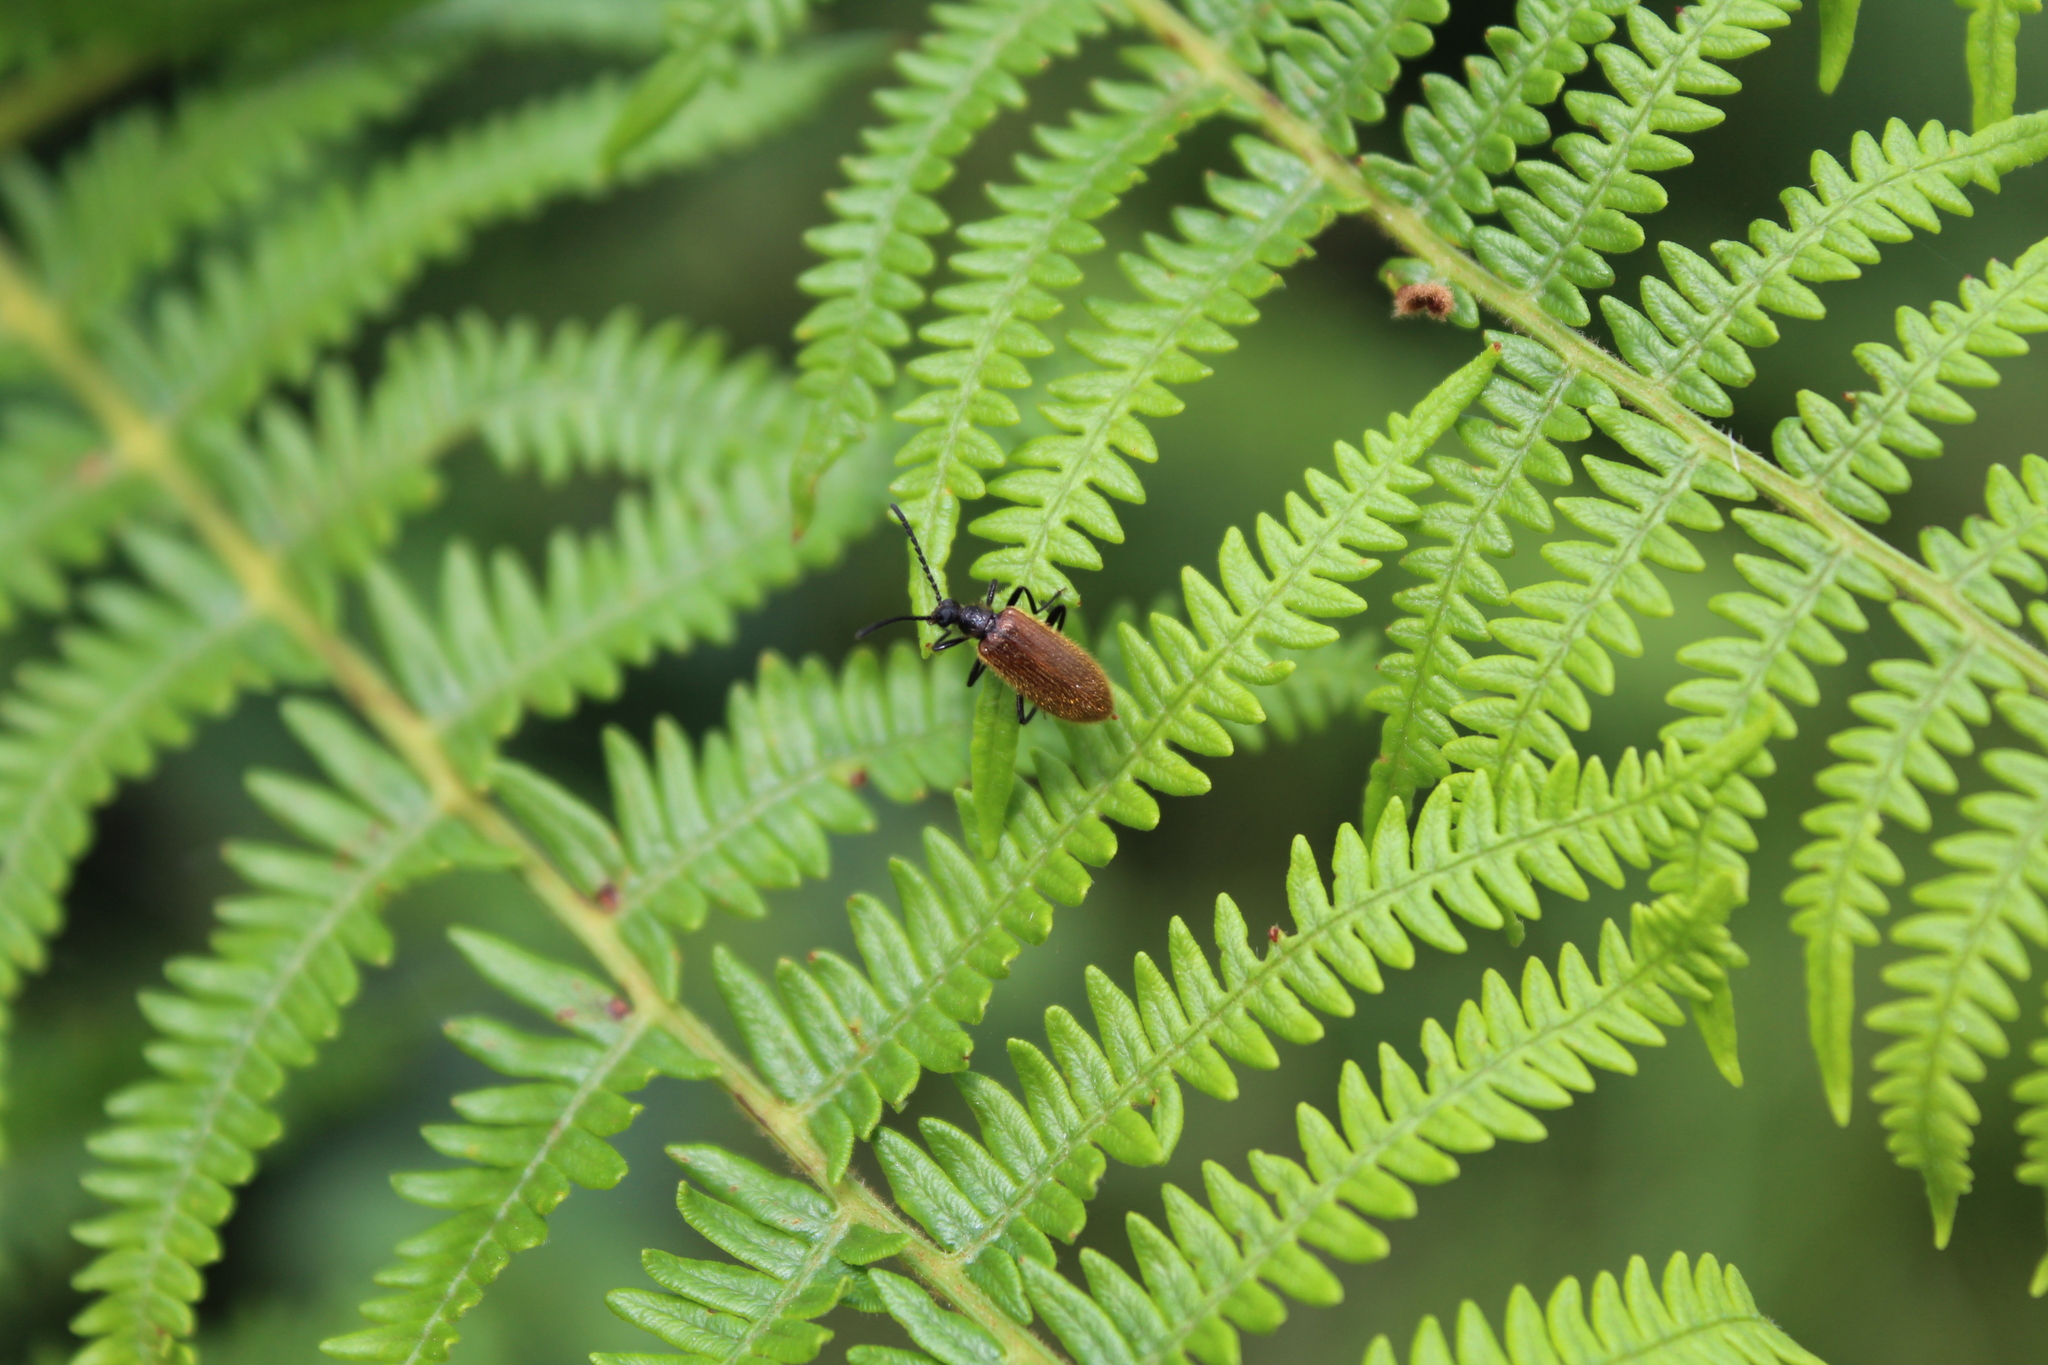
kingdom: Animalia
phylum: Arthropoda
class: Insecta
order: Coleoptera
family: Tenebrionidae
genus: Lagria
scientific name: Lagria hirta
